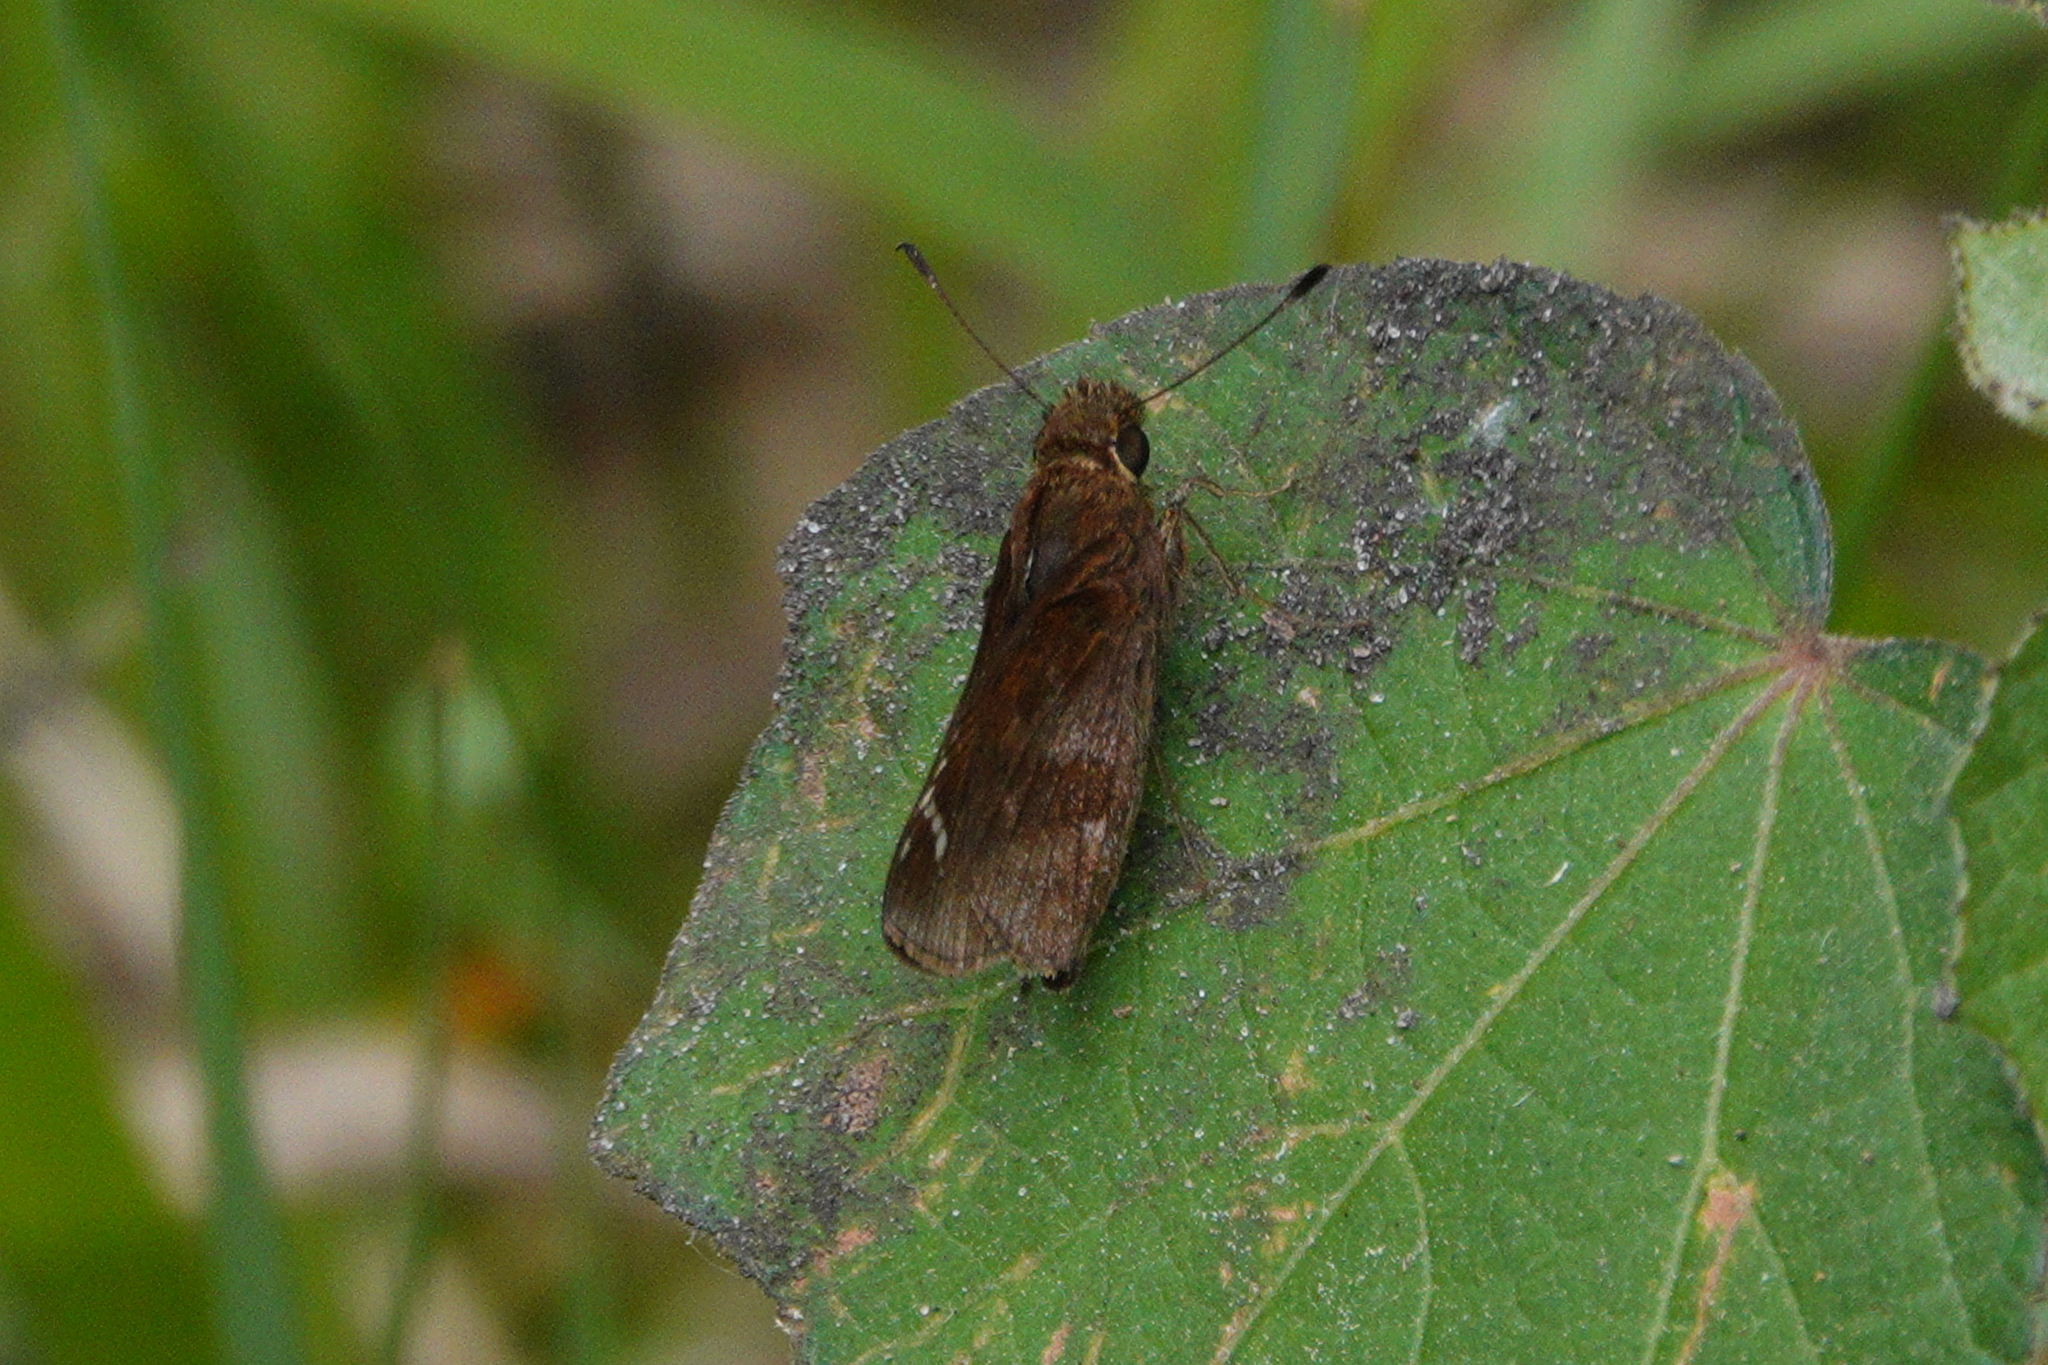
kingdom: Animalia
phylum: Arthropoda
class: Insecta
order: Lepidoptera
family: Hesperiidae
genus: Lerema
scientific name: Lerema accius
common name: Clouded skipper
